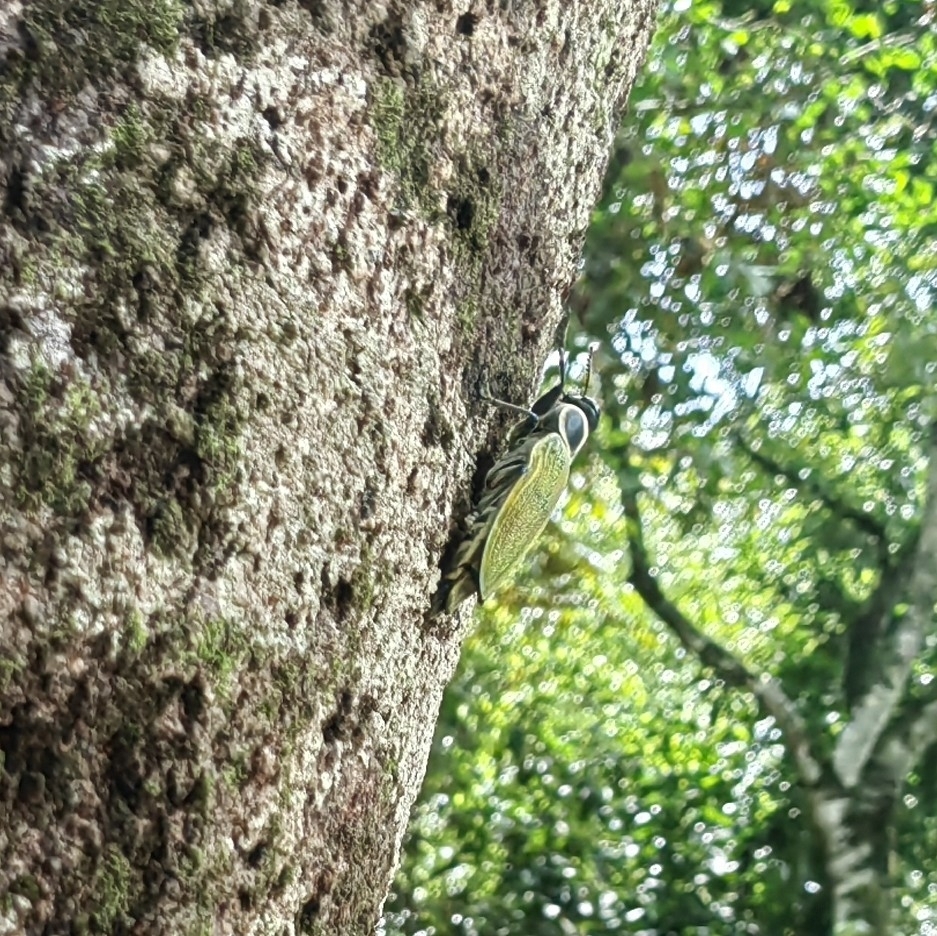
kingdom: Animalia
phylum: Arthropoda
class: Insecta
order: Coleoptera
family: Buprestidae
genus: Euchroma
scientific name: Euchroma giganteum
